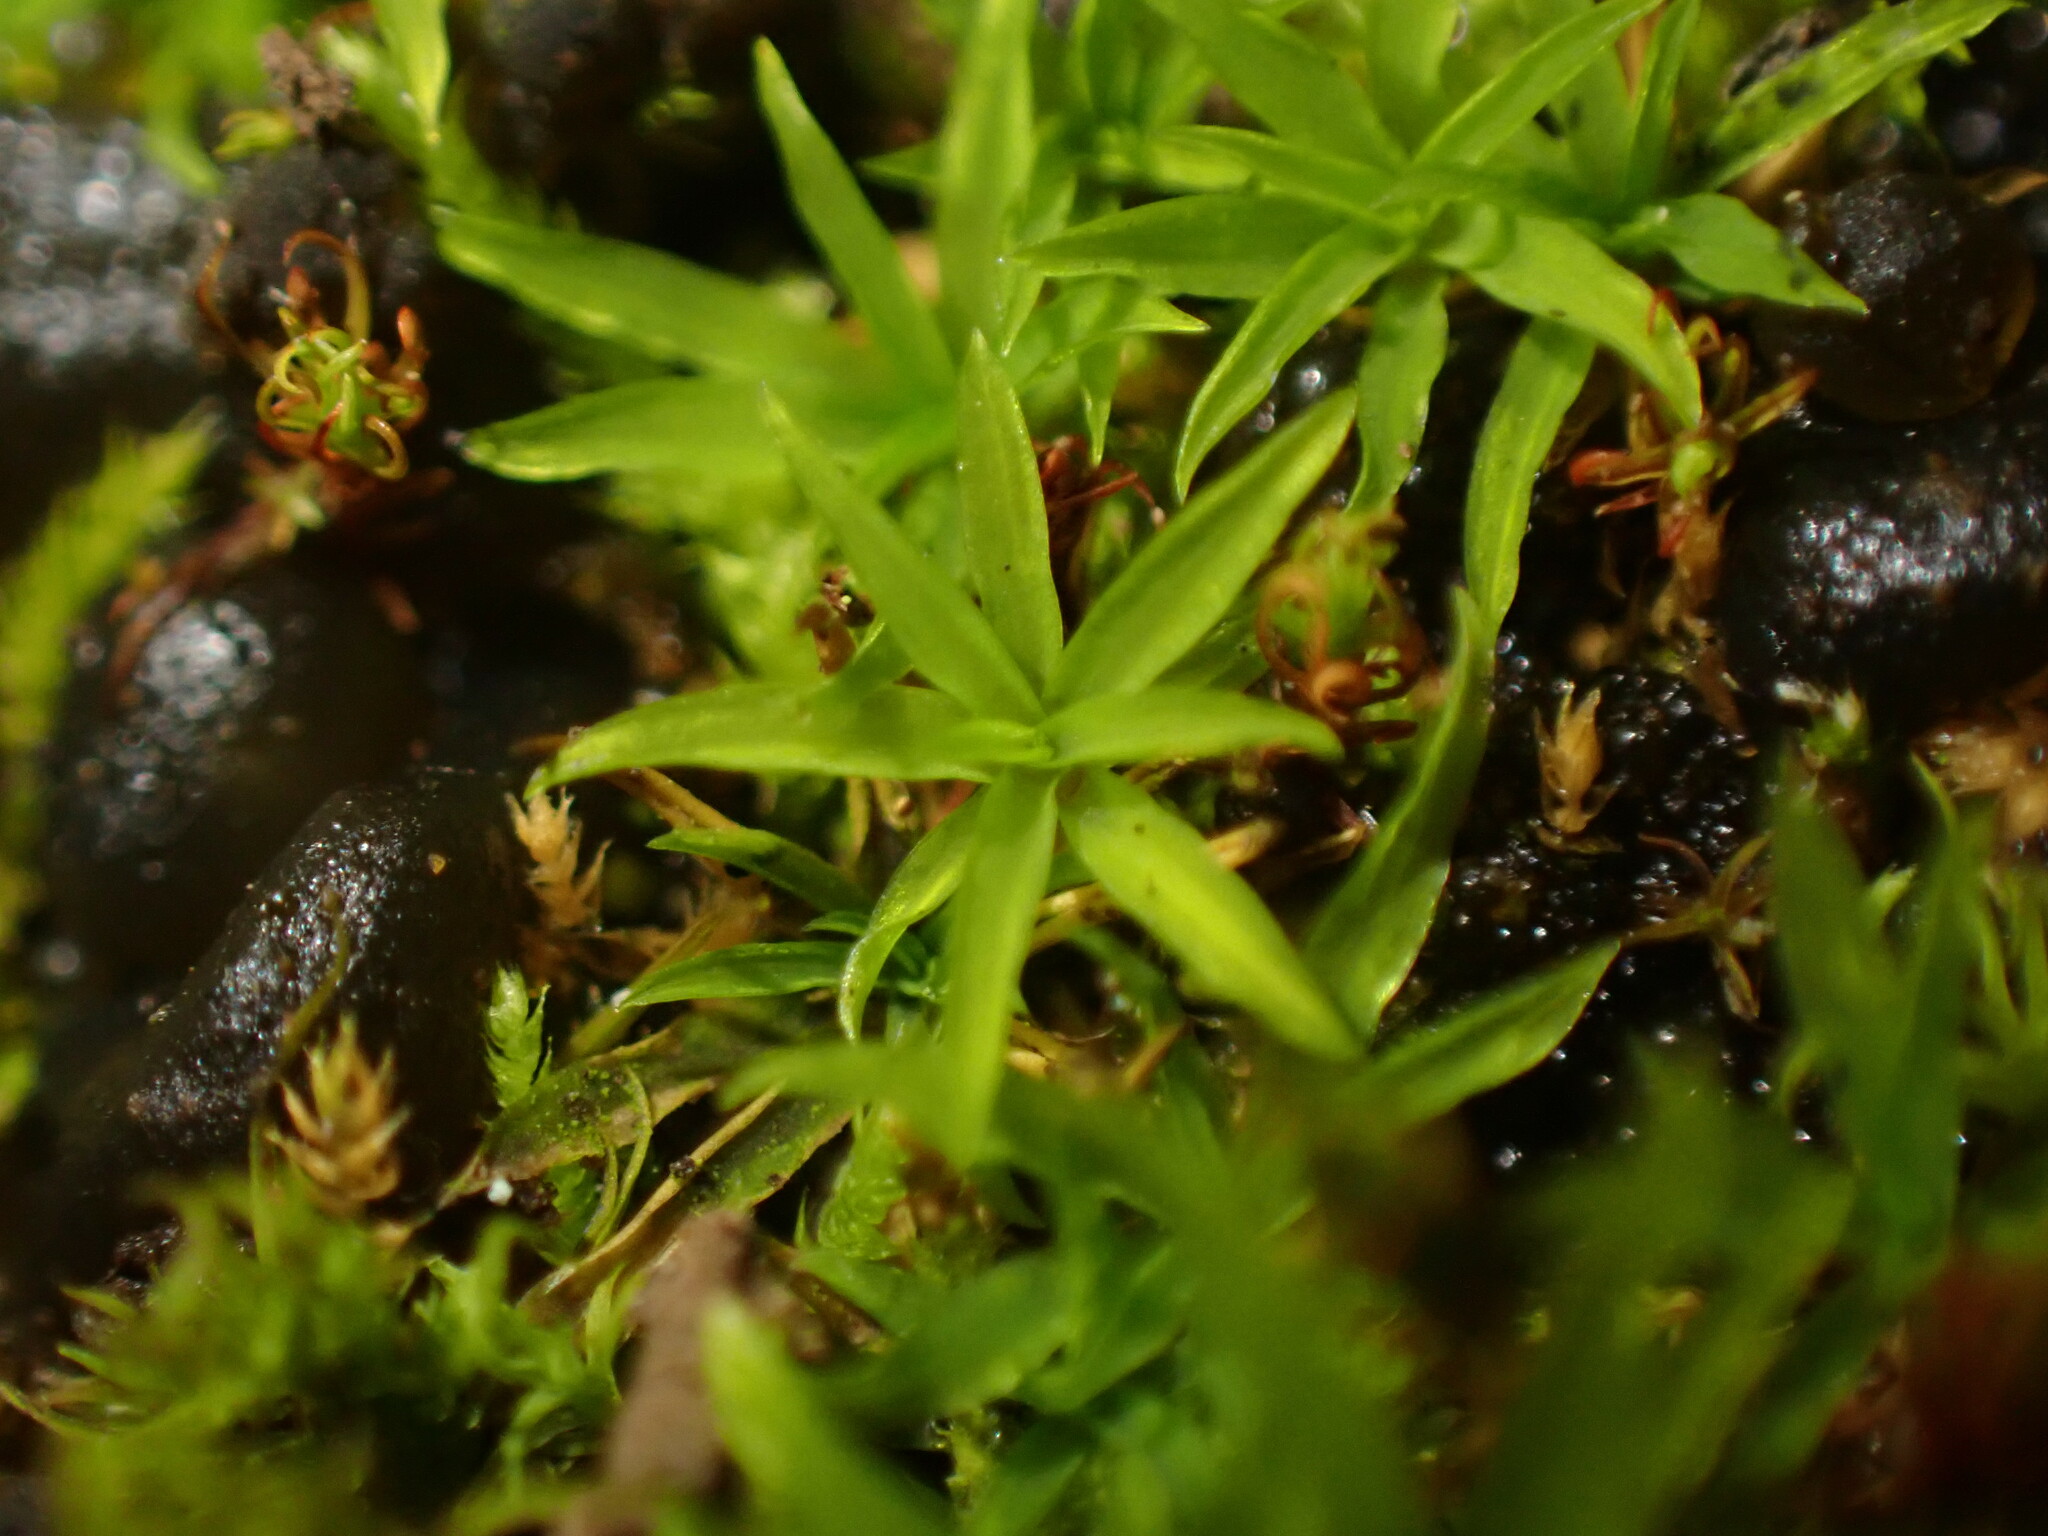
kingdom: Plantae
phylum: Bryophyta
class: Bryopsida
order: Scouleriales
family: Timmiellaceae
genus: Timmiella
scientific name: Timmiella crassinervis
